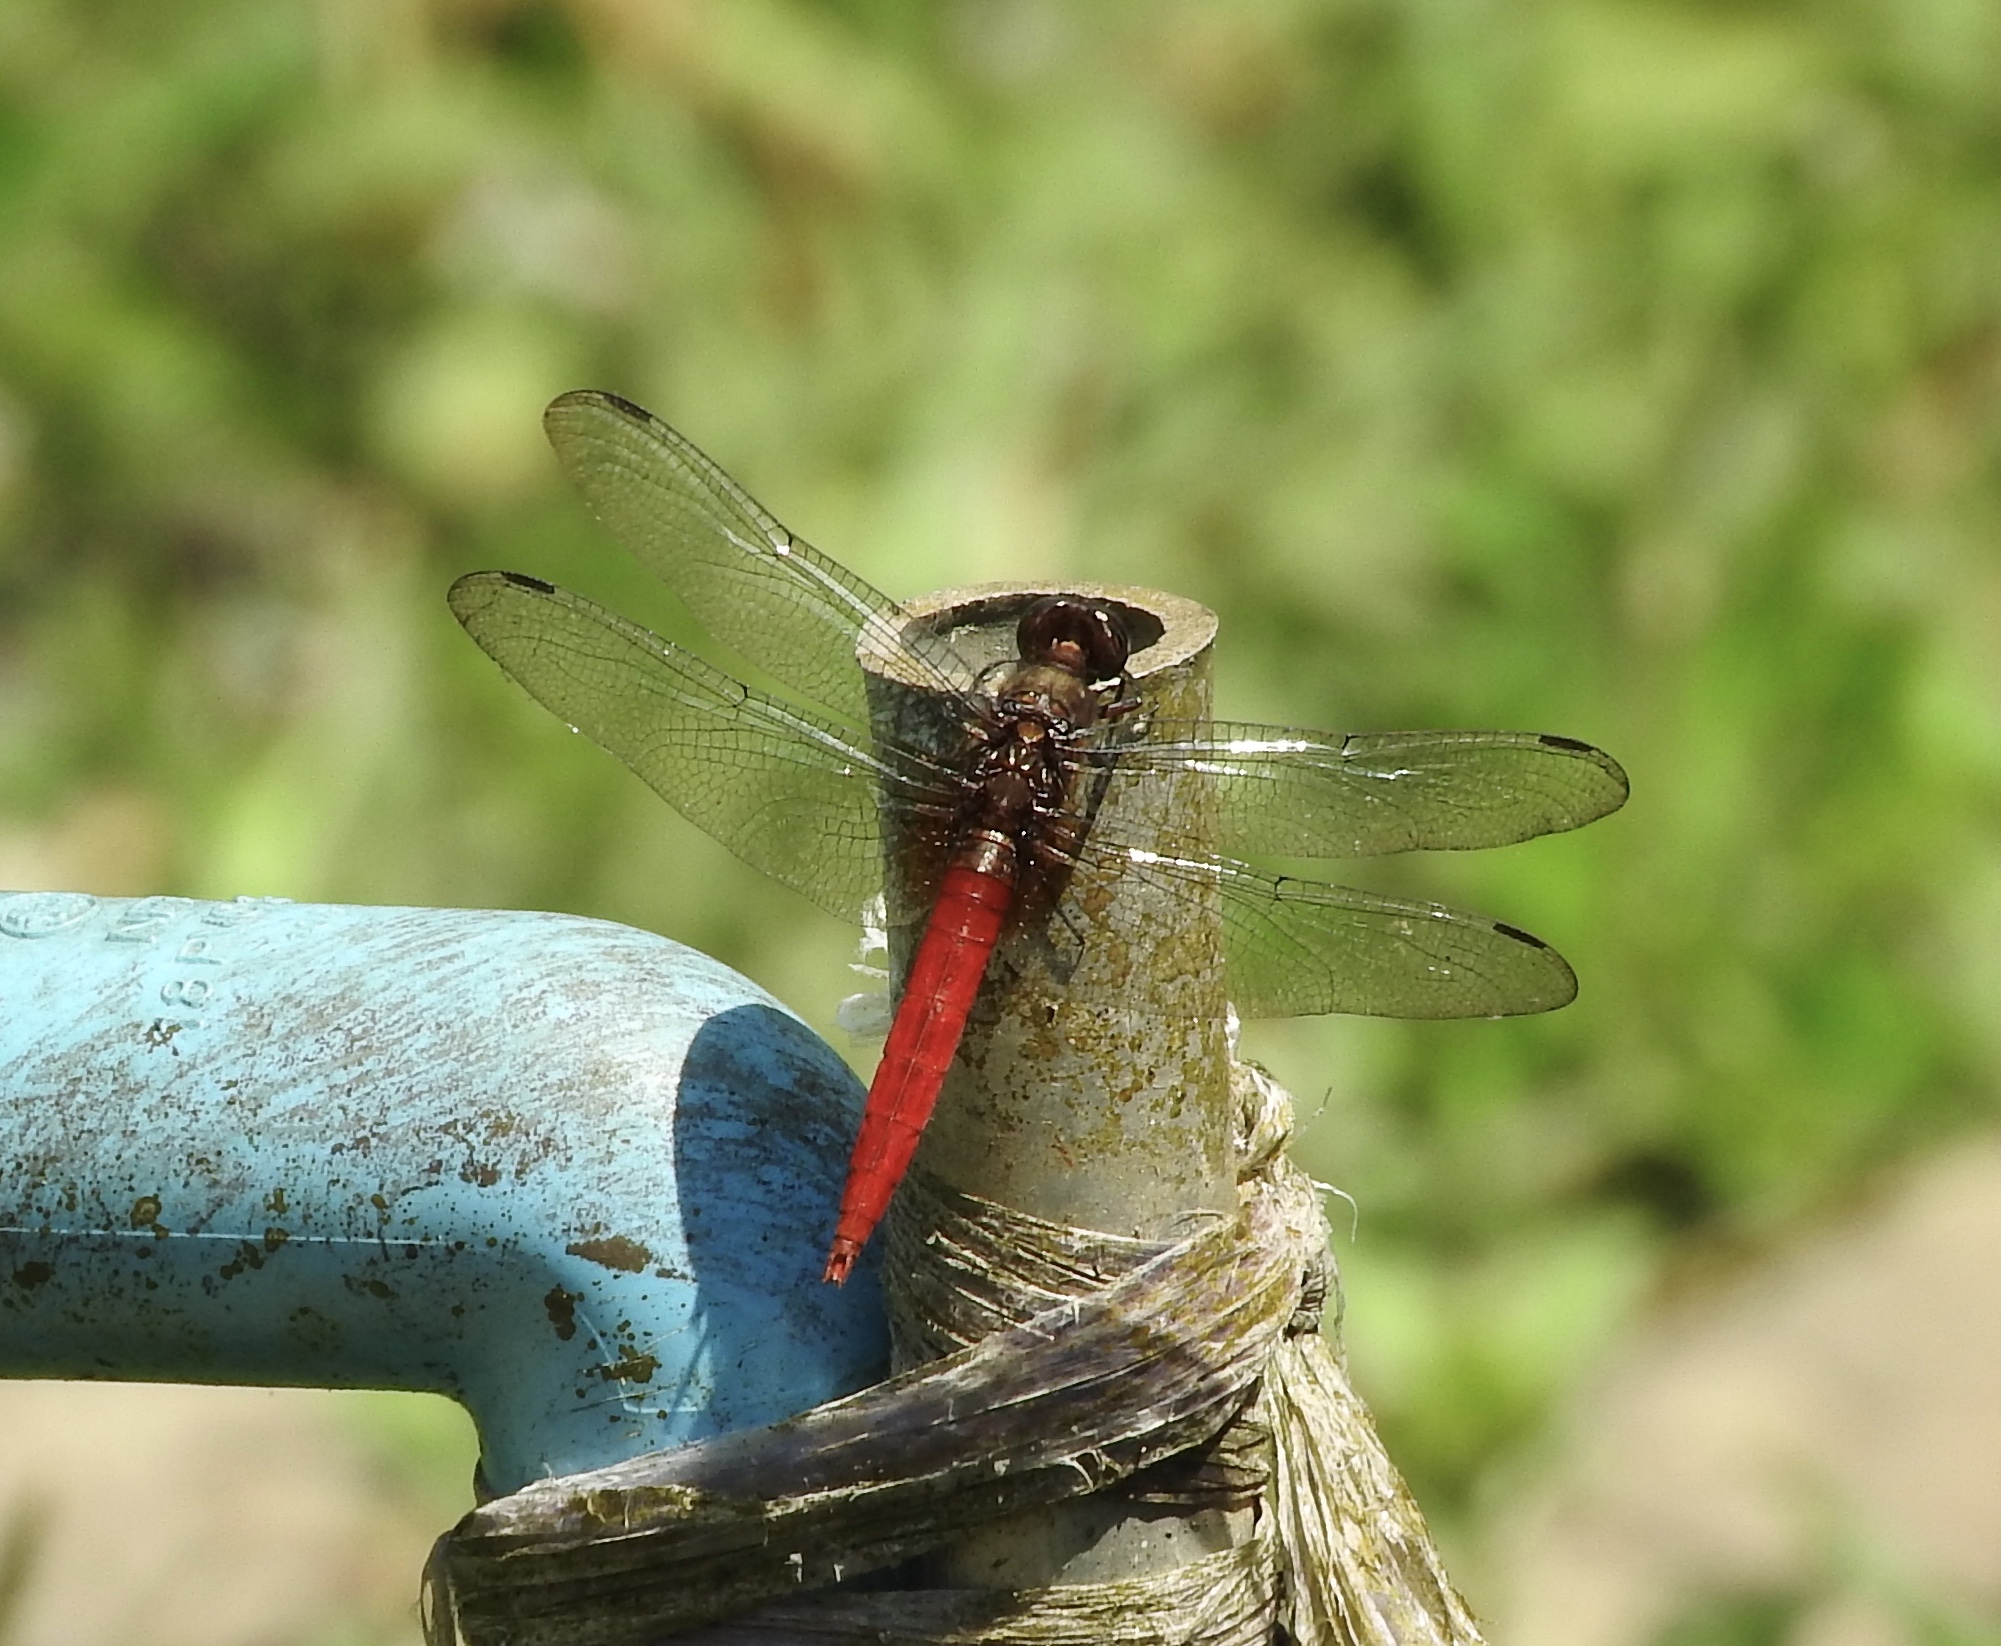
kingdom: Animalia
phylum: Arthropoda
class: Insecta
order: Odonata
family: Libellulidae
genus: Orthetrum
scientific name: Orthetrum chrysis
